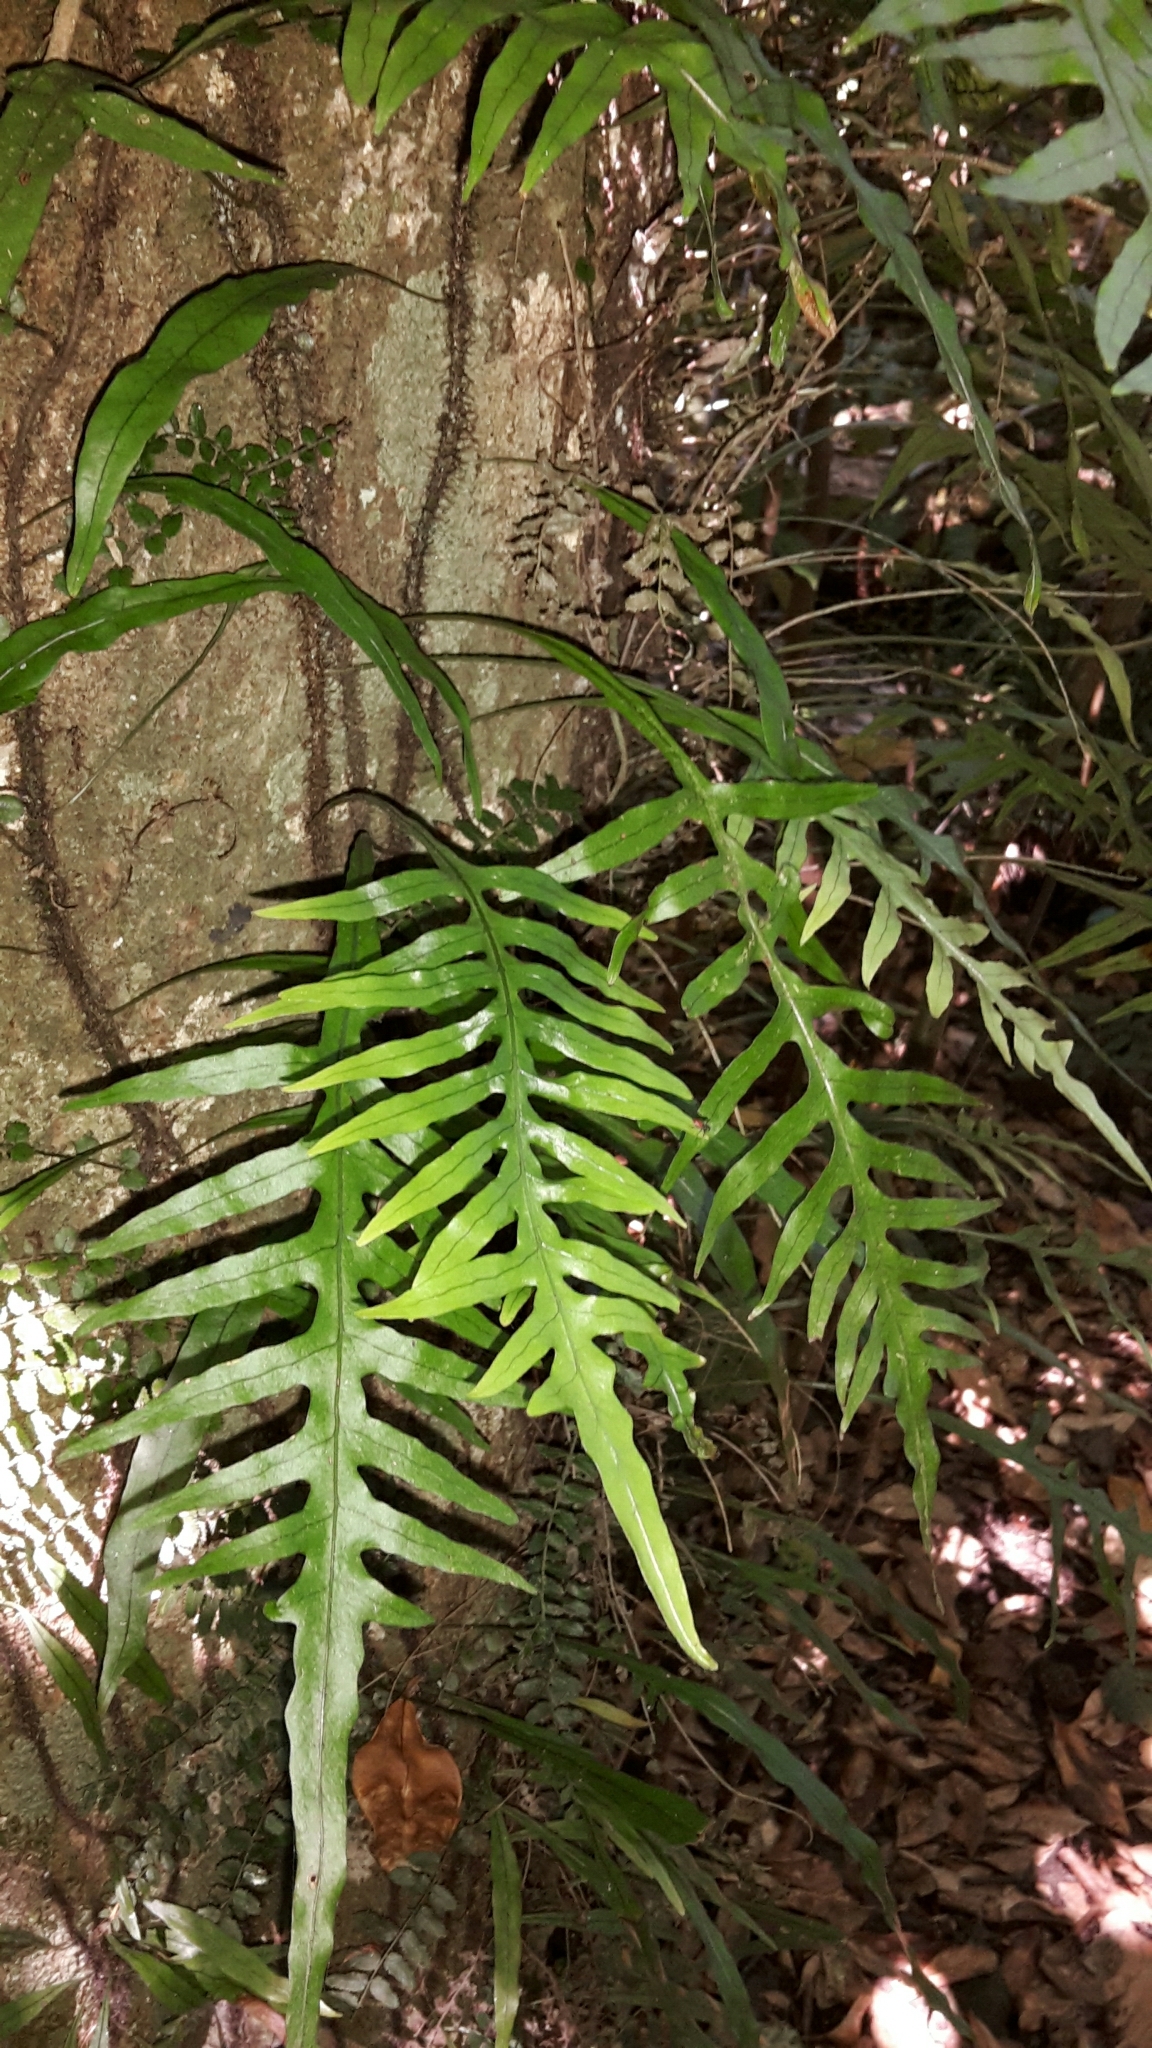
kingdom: Plantae
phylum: Tracheophyta
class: Polypodiopsida
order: Polypodiales
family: Polypodiaceae
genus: Lecanopteris
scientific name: Lecanopteris scandens
